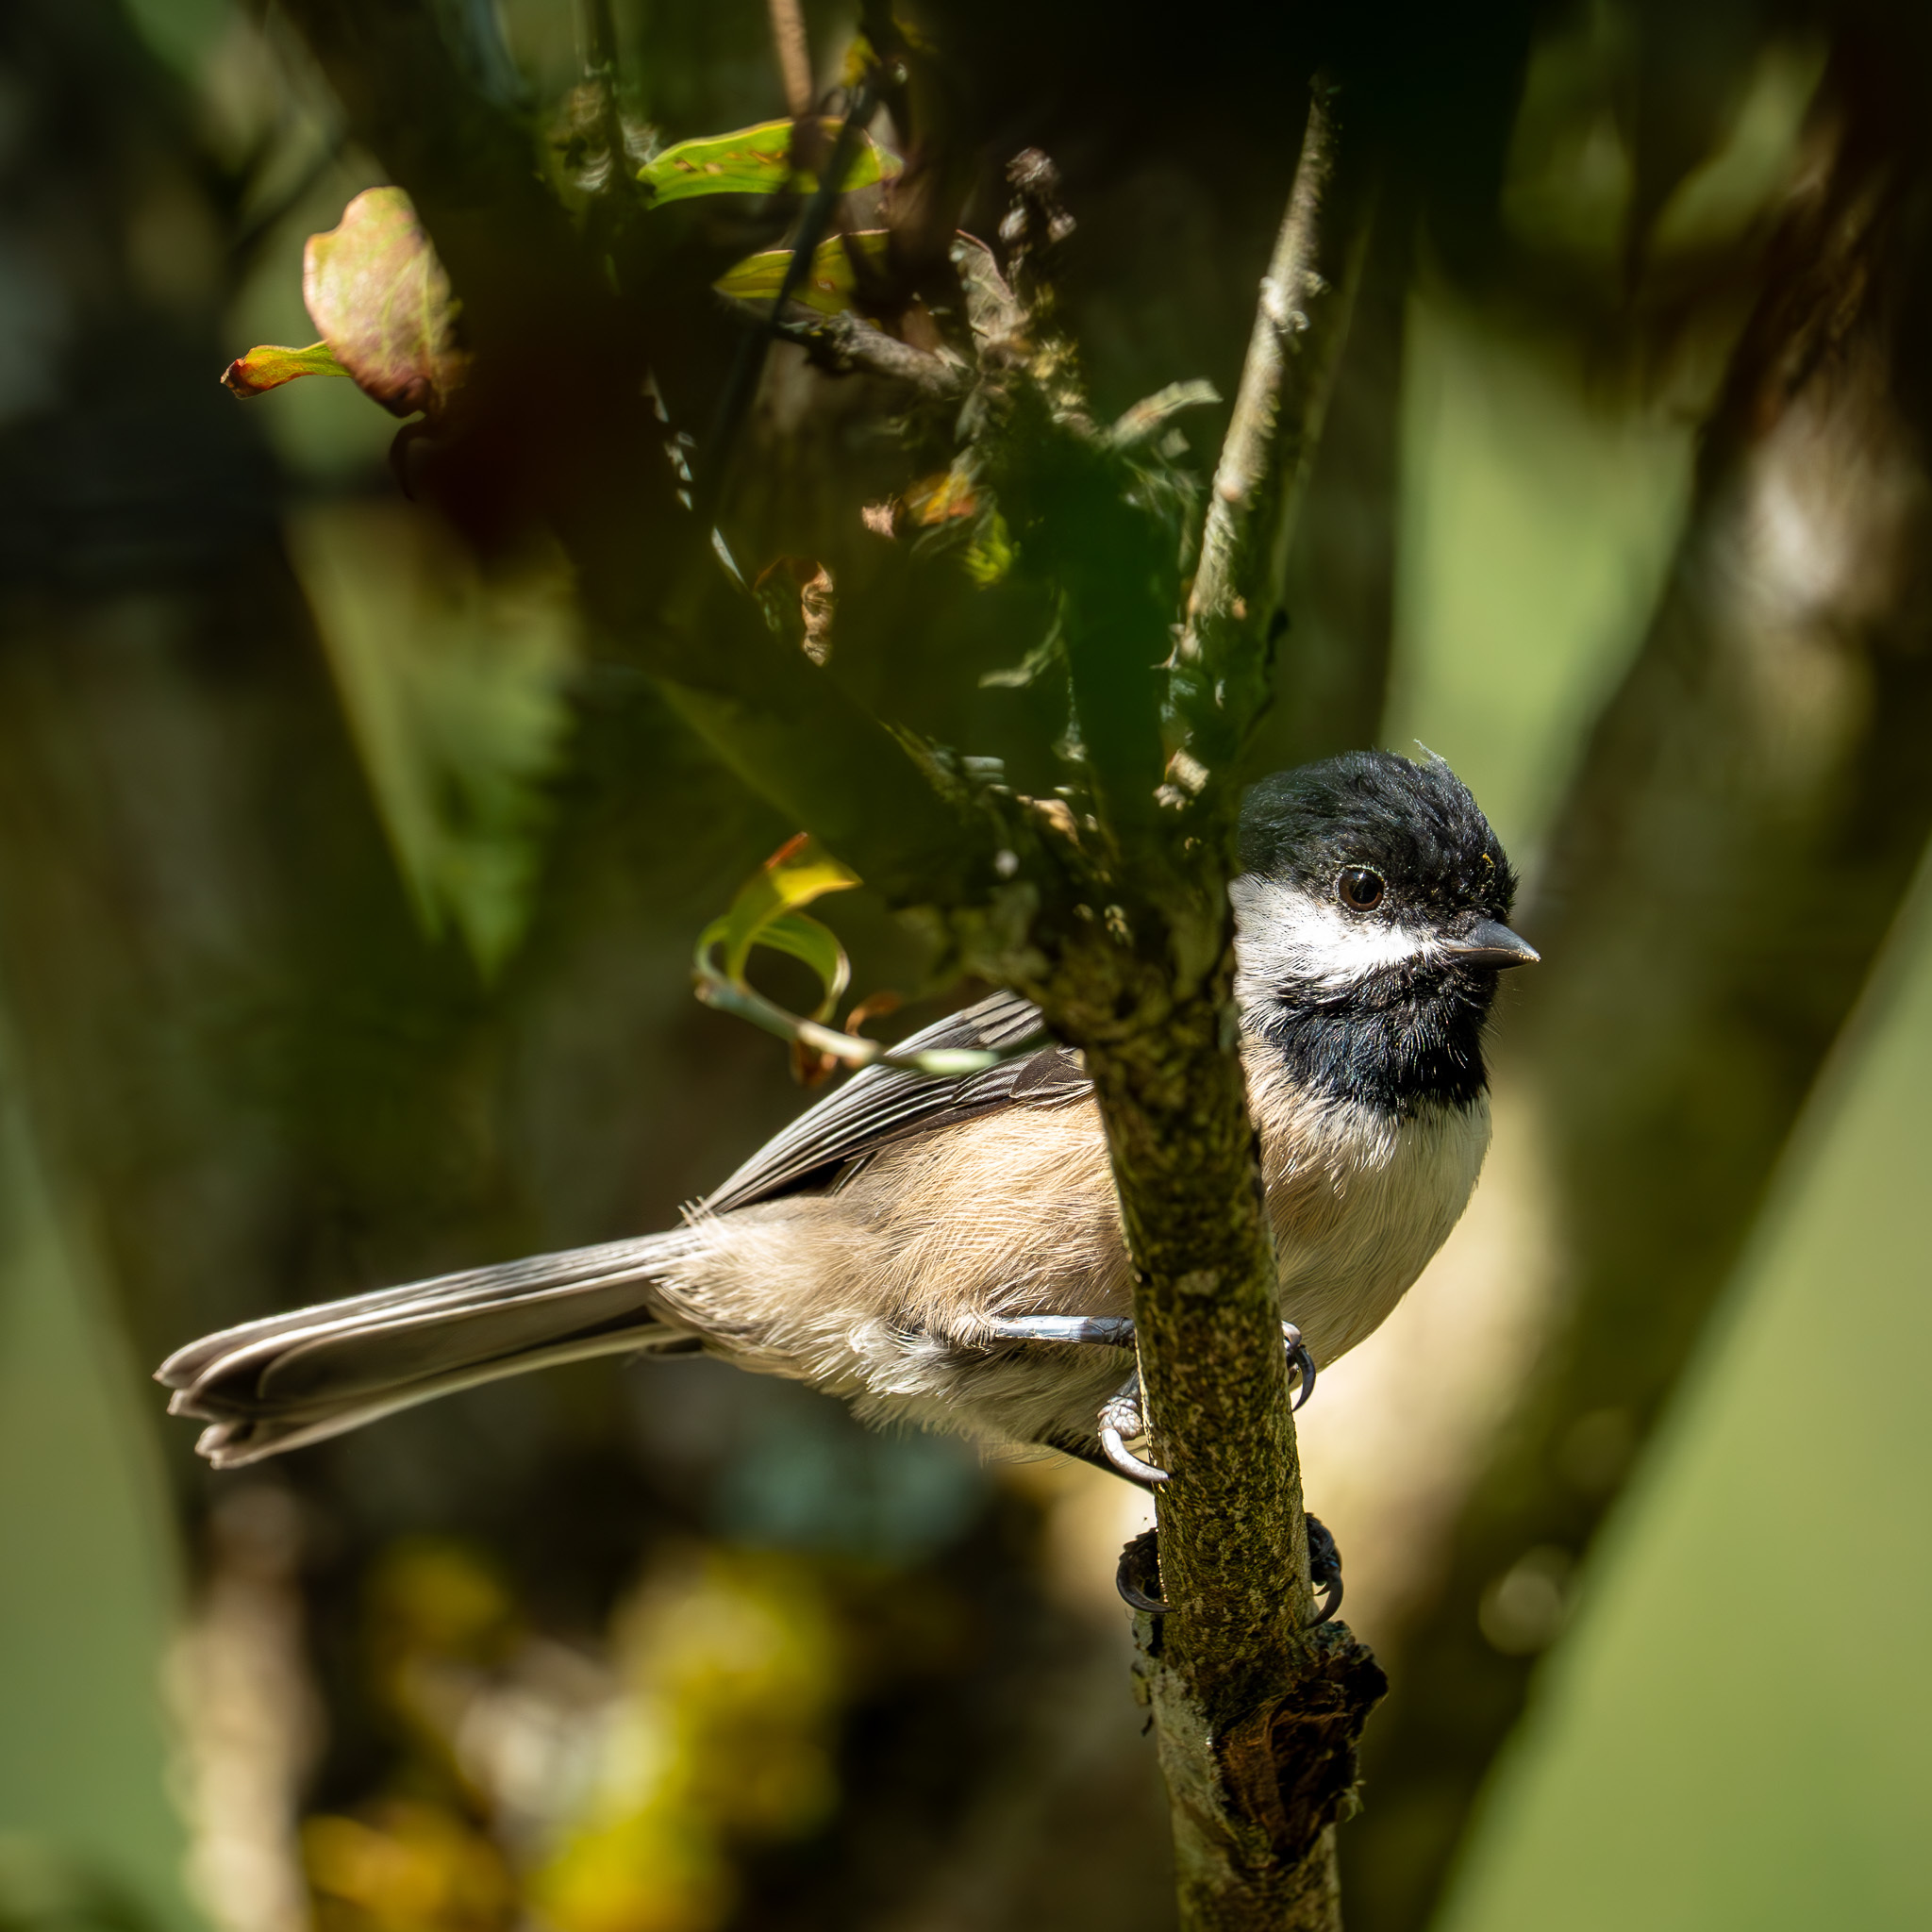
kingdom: Animalia
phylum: Chordata
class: Aves
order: Passeriformes
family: Paridae
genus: Poecile
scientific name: Poecile atricapillus
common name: Black-capped chickadee
